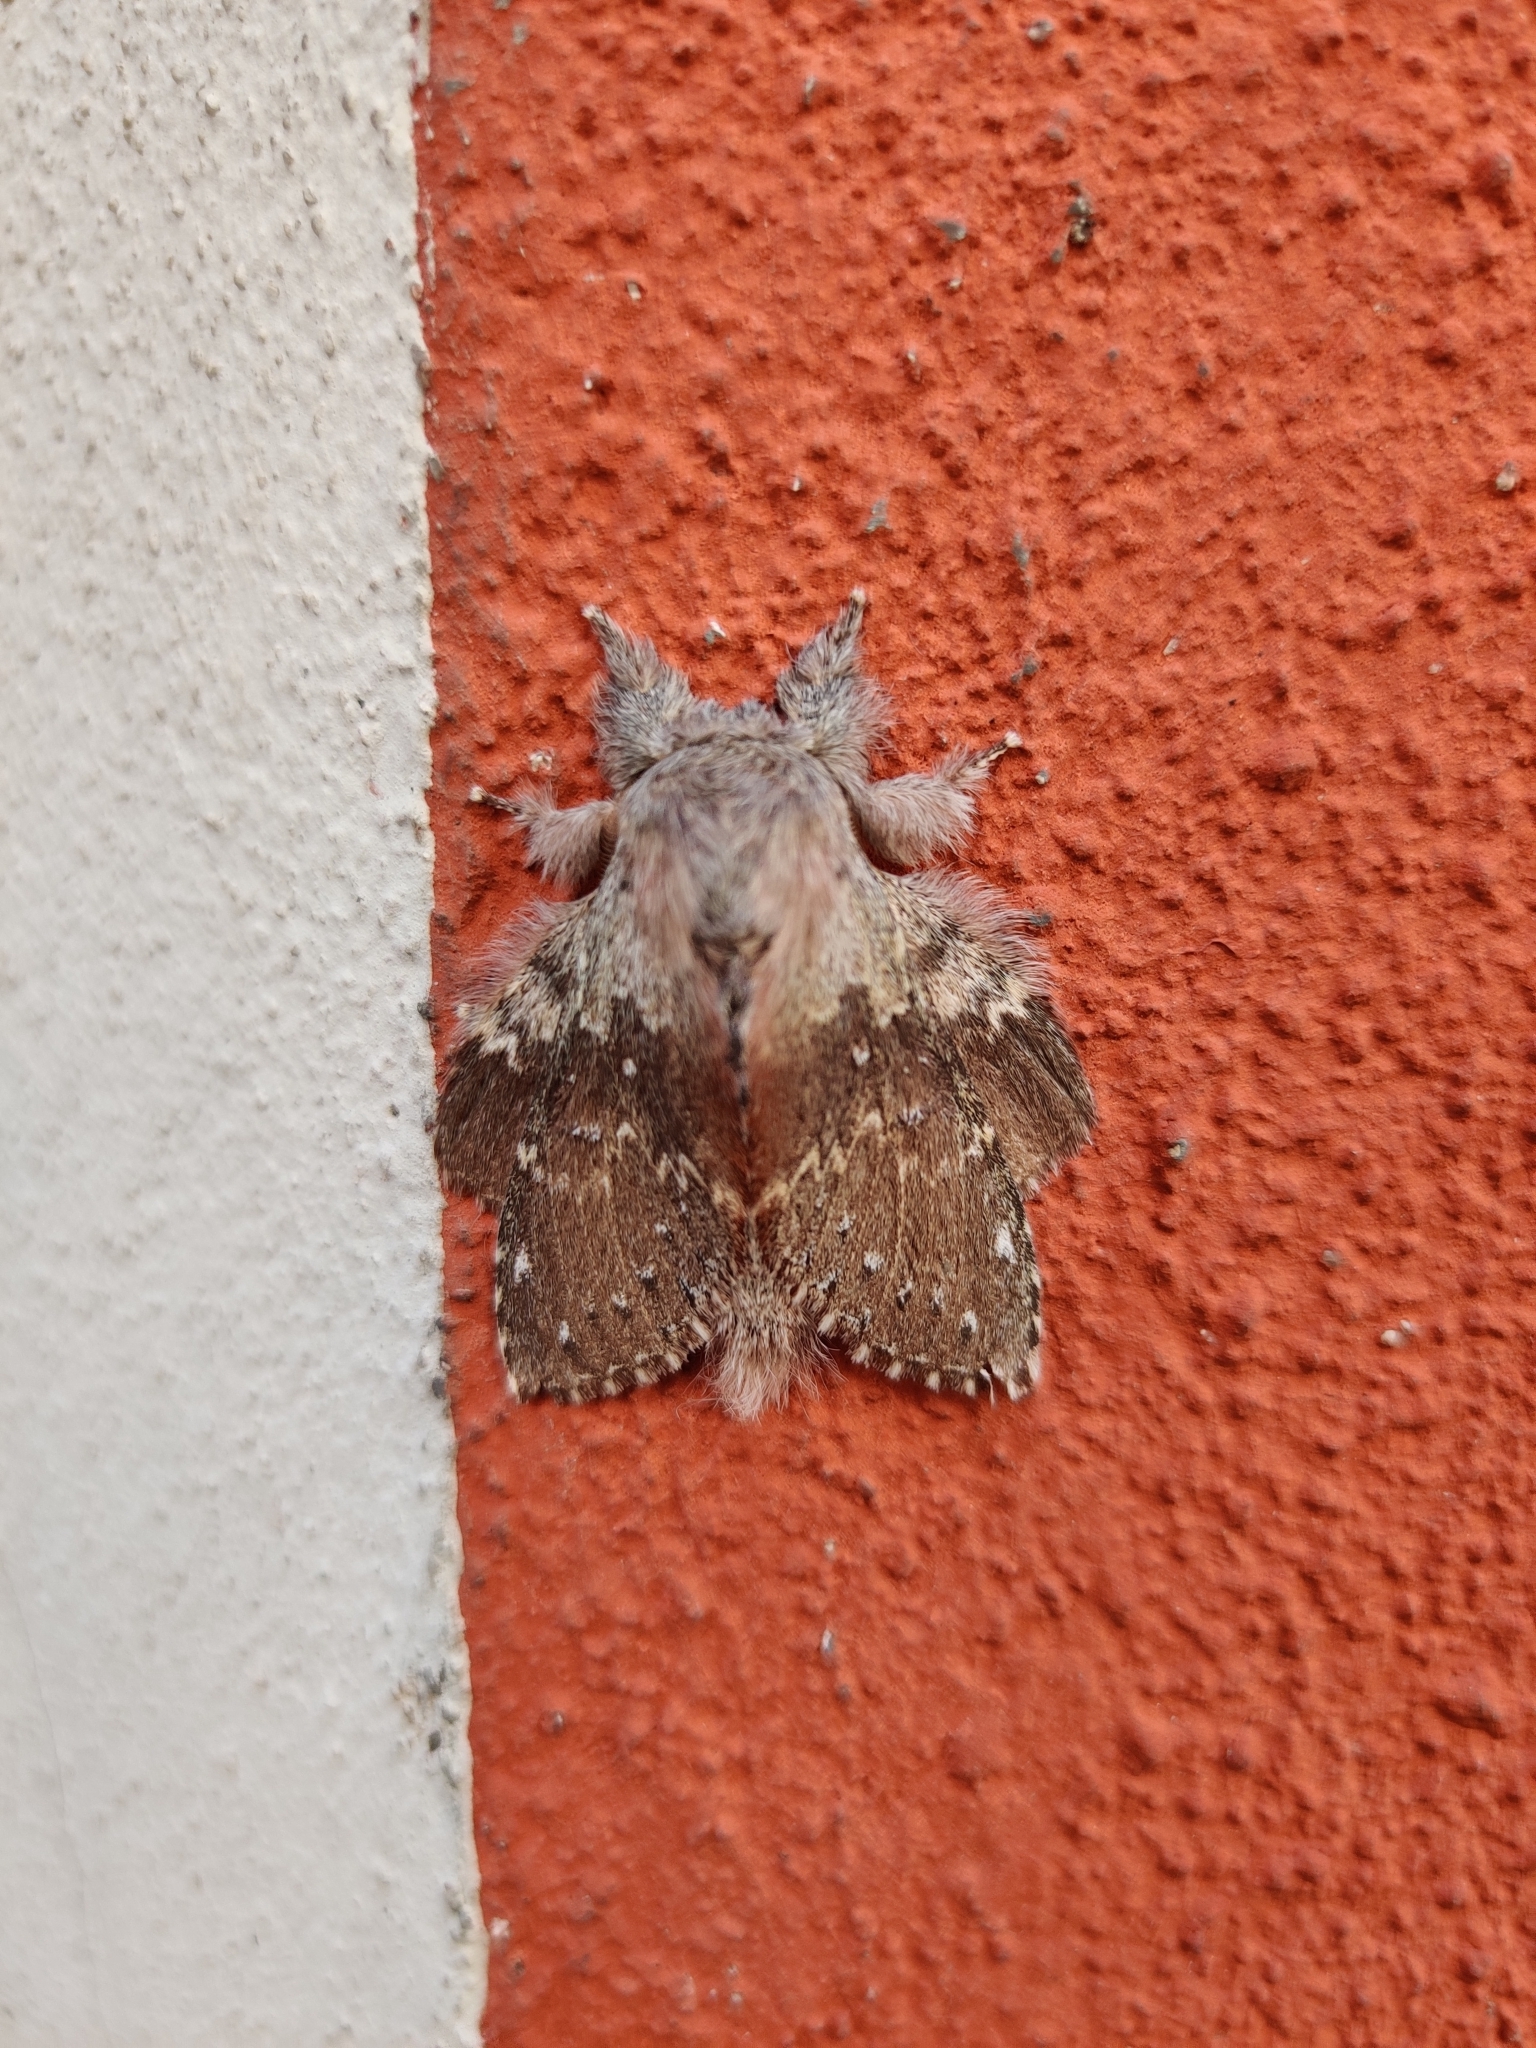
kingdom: Animalia
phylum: Arthropoda
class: Insecta
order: Lepidoptera
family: Notodontidae
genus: Stauropus
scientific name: Stauropus fagi
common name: Lobster moth
